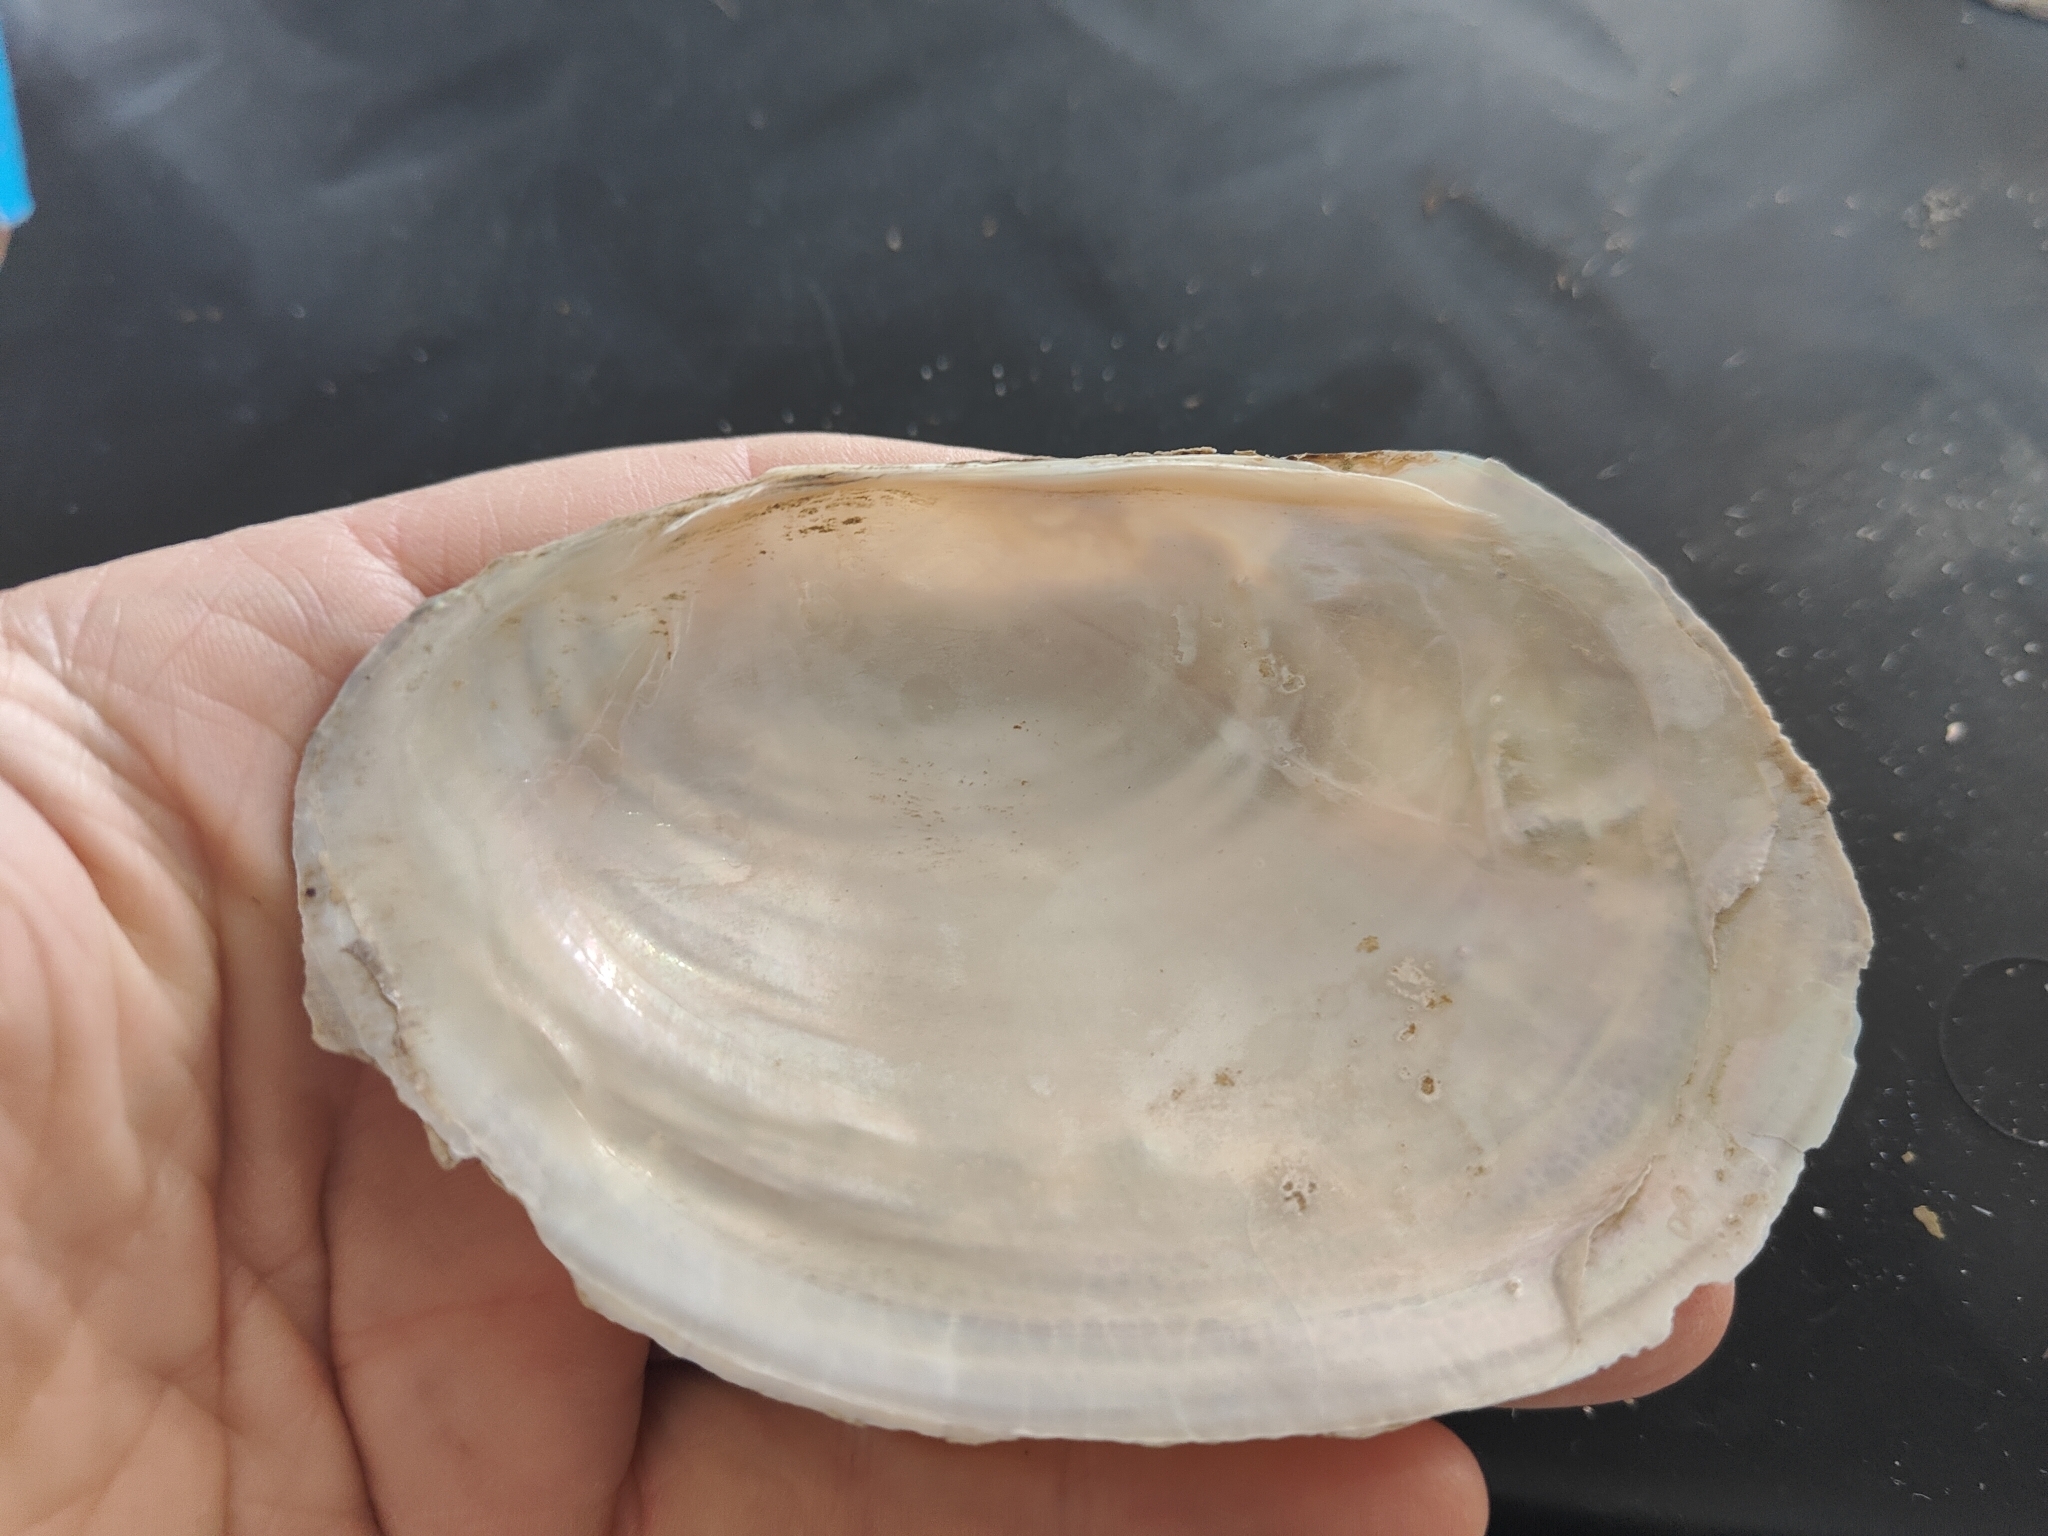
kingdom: Animalia
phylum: Mollusca
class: Bivalvia
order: Unionida
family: Unionidae
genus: Potamilus
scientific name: Potamilus fragilis
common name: Fragile papershell
